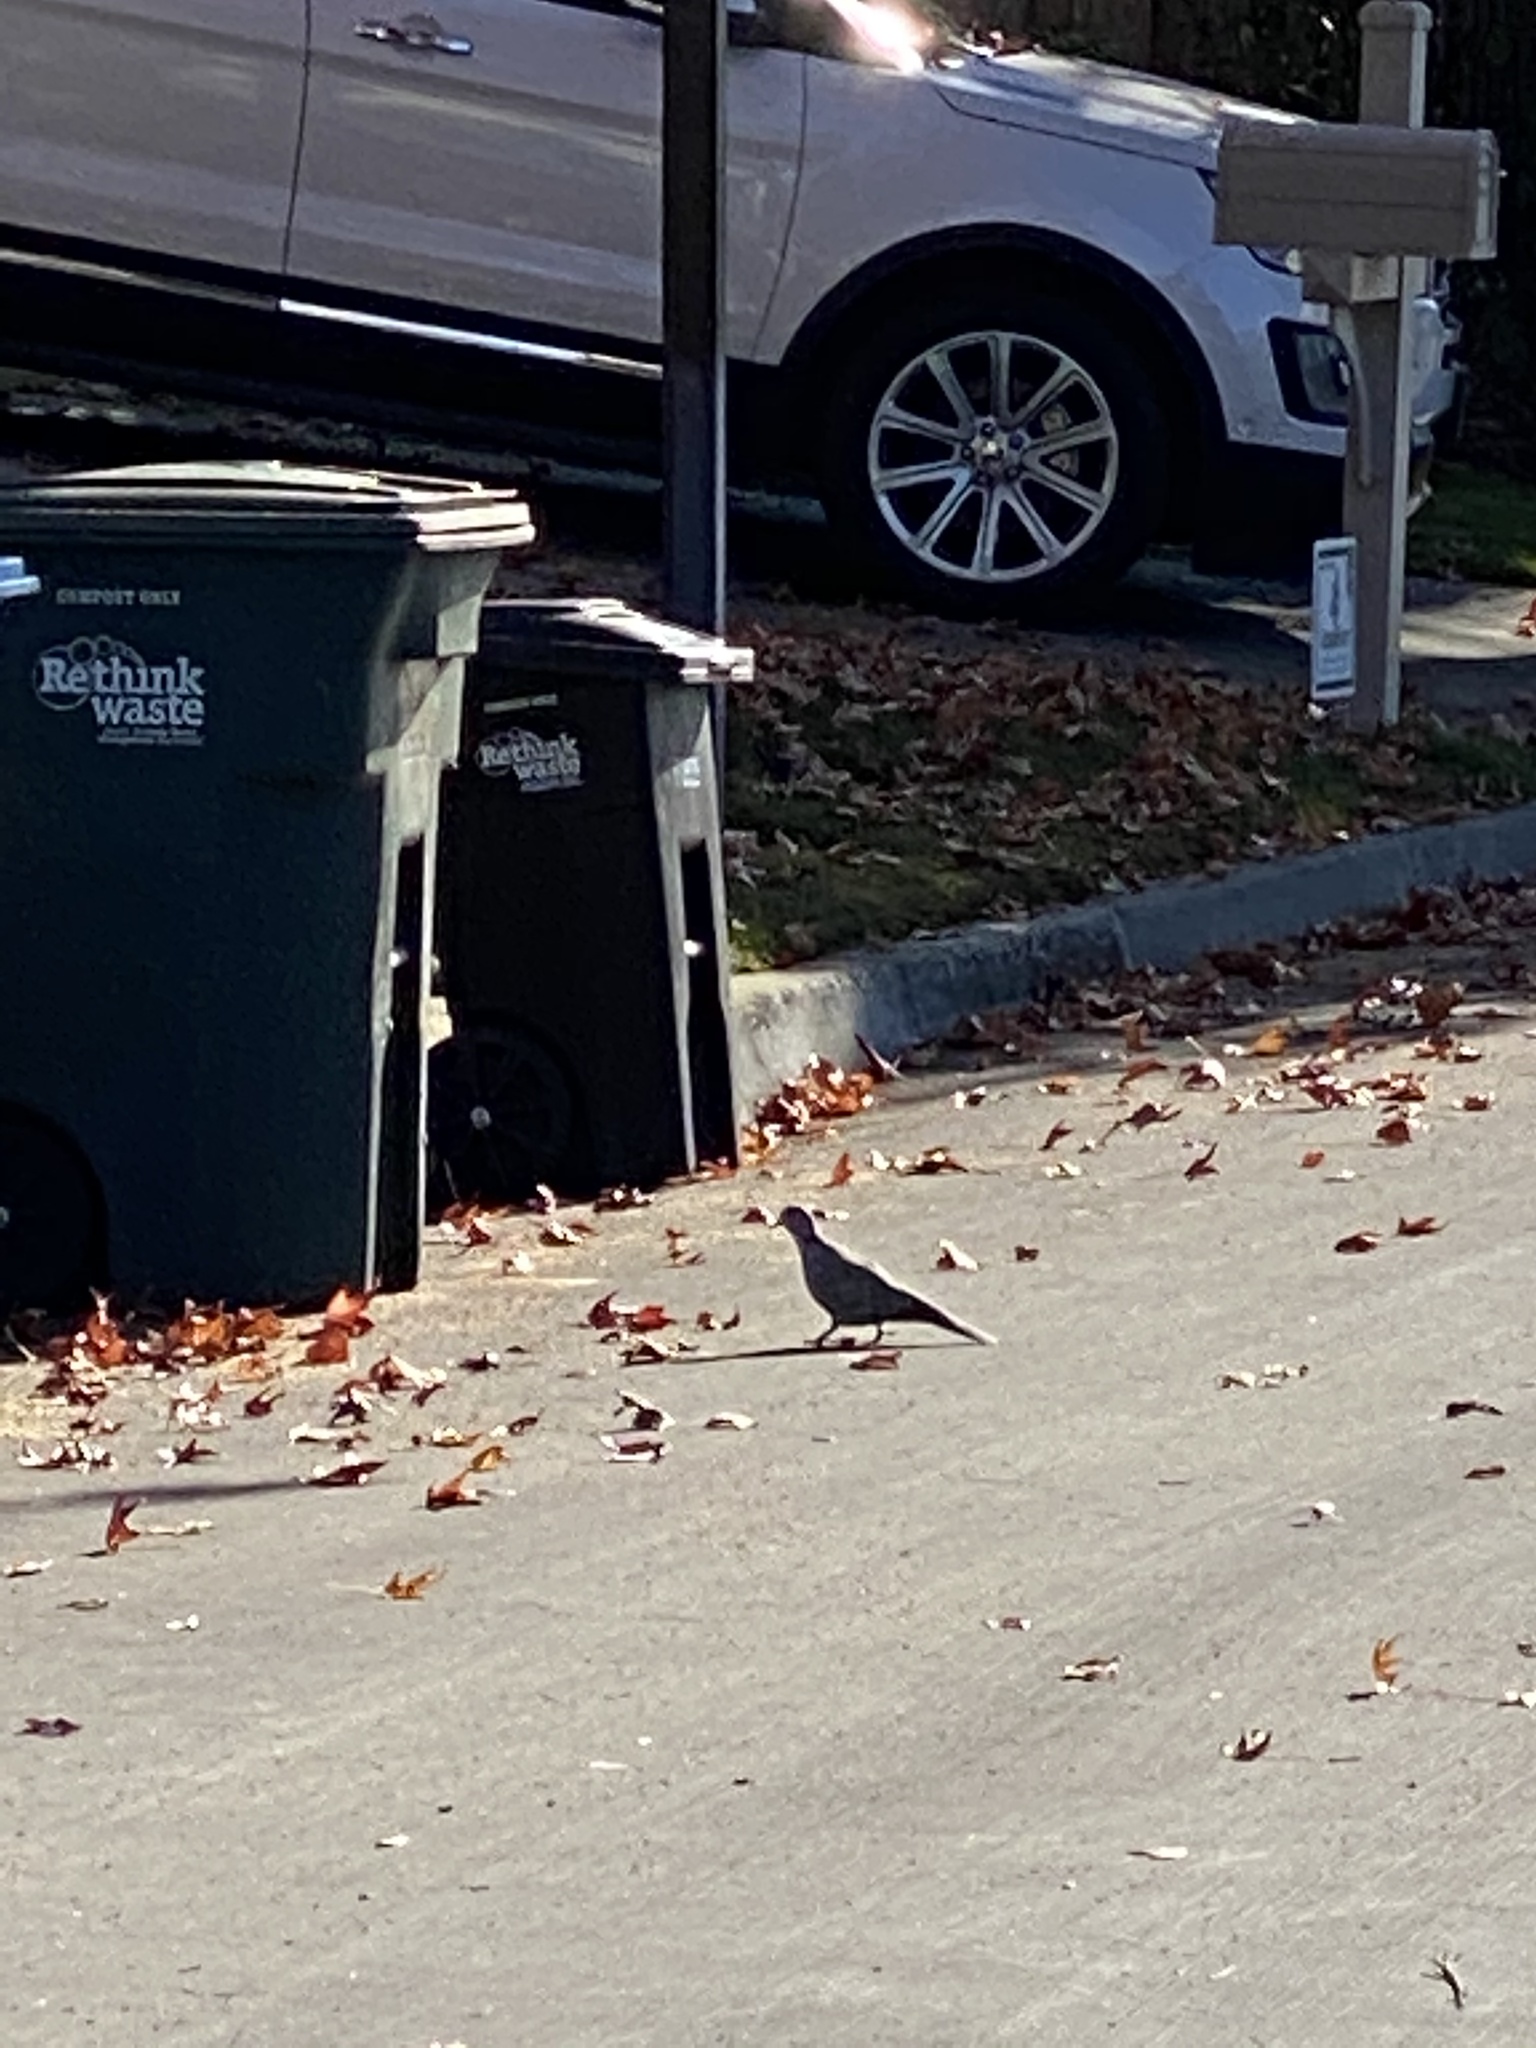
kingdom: Animalia
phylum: Chordata
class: Aves
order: Columbiformes
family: Columbidae
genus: Zenaida
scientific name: Zenaida macroura
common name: Mourning dove
